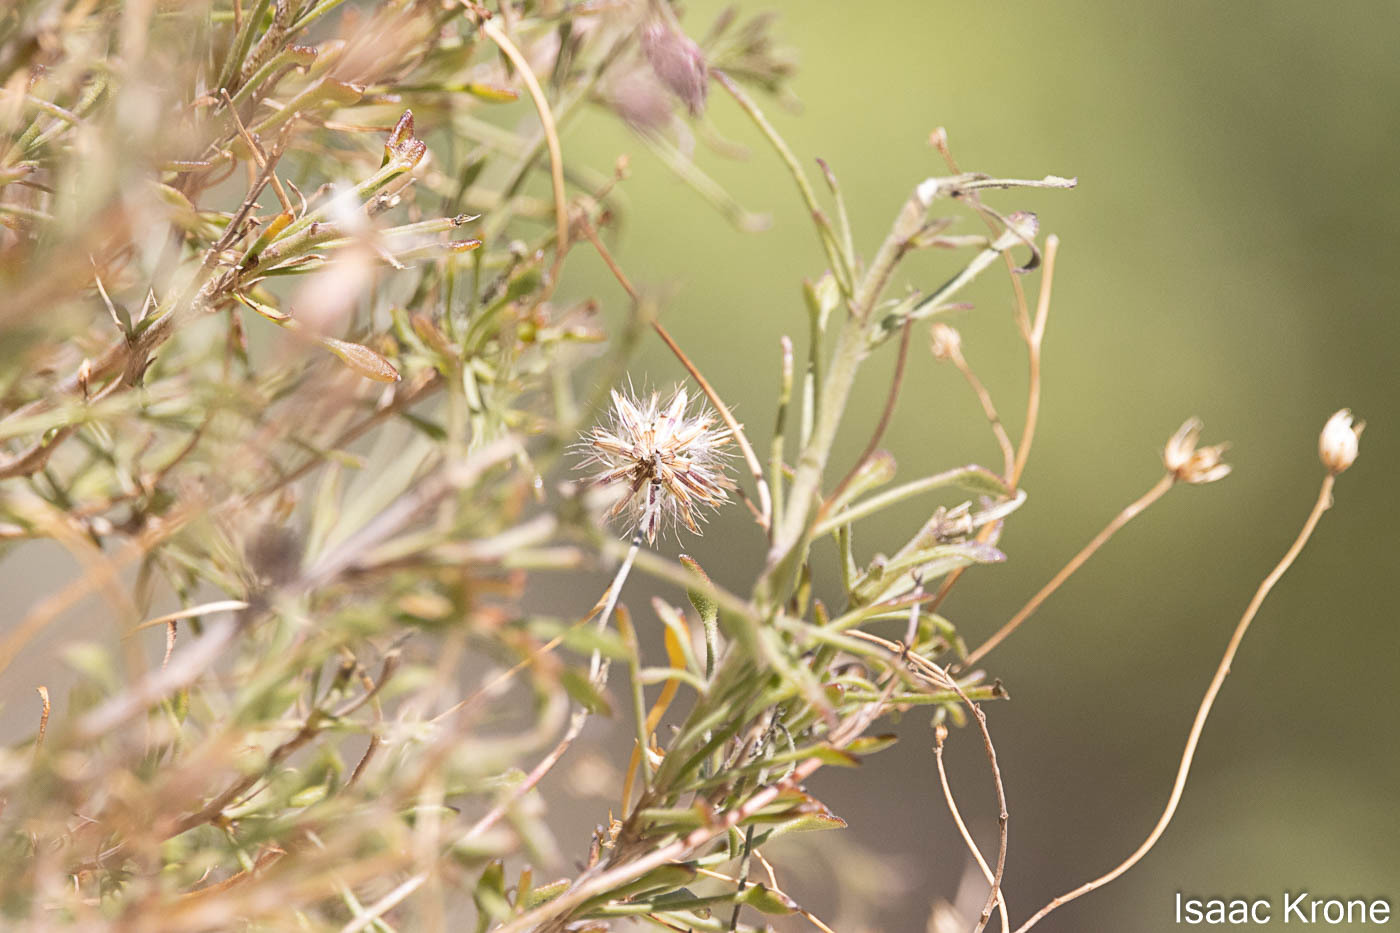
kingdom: Plantae
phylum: Tracheophyta
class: Magnoliopsida
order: Asterales
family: Asteraceae
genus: Pleurocoronis
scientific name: Pleurocoronis pluriseta
